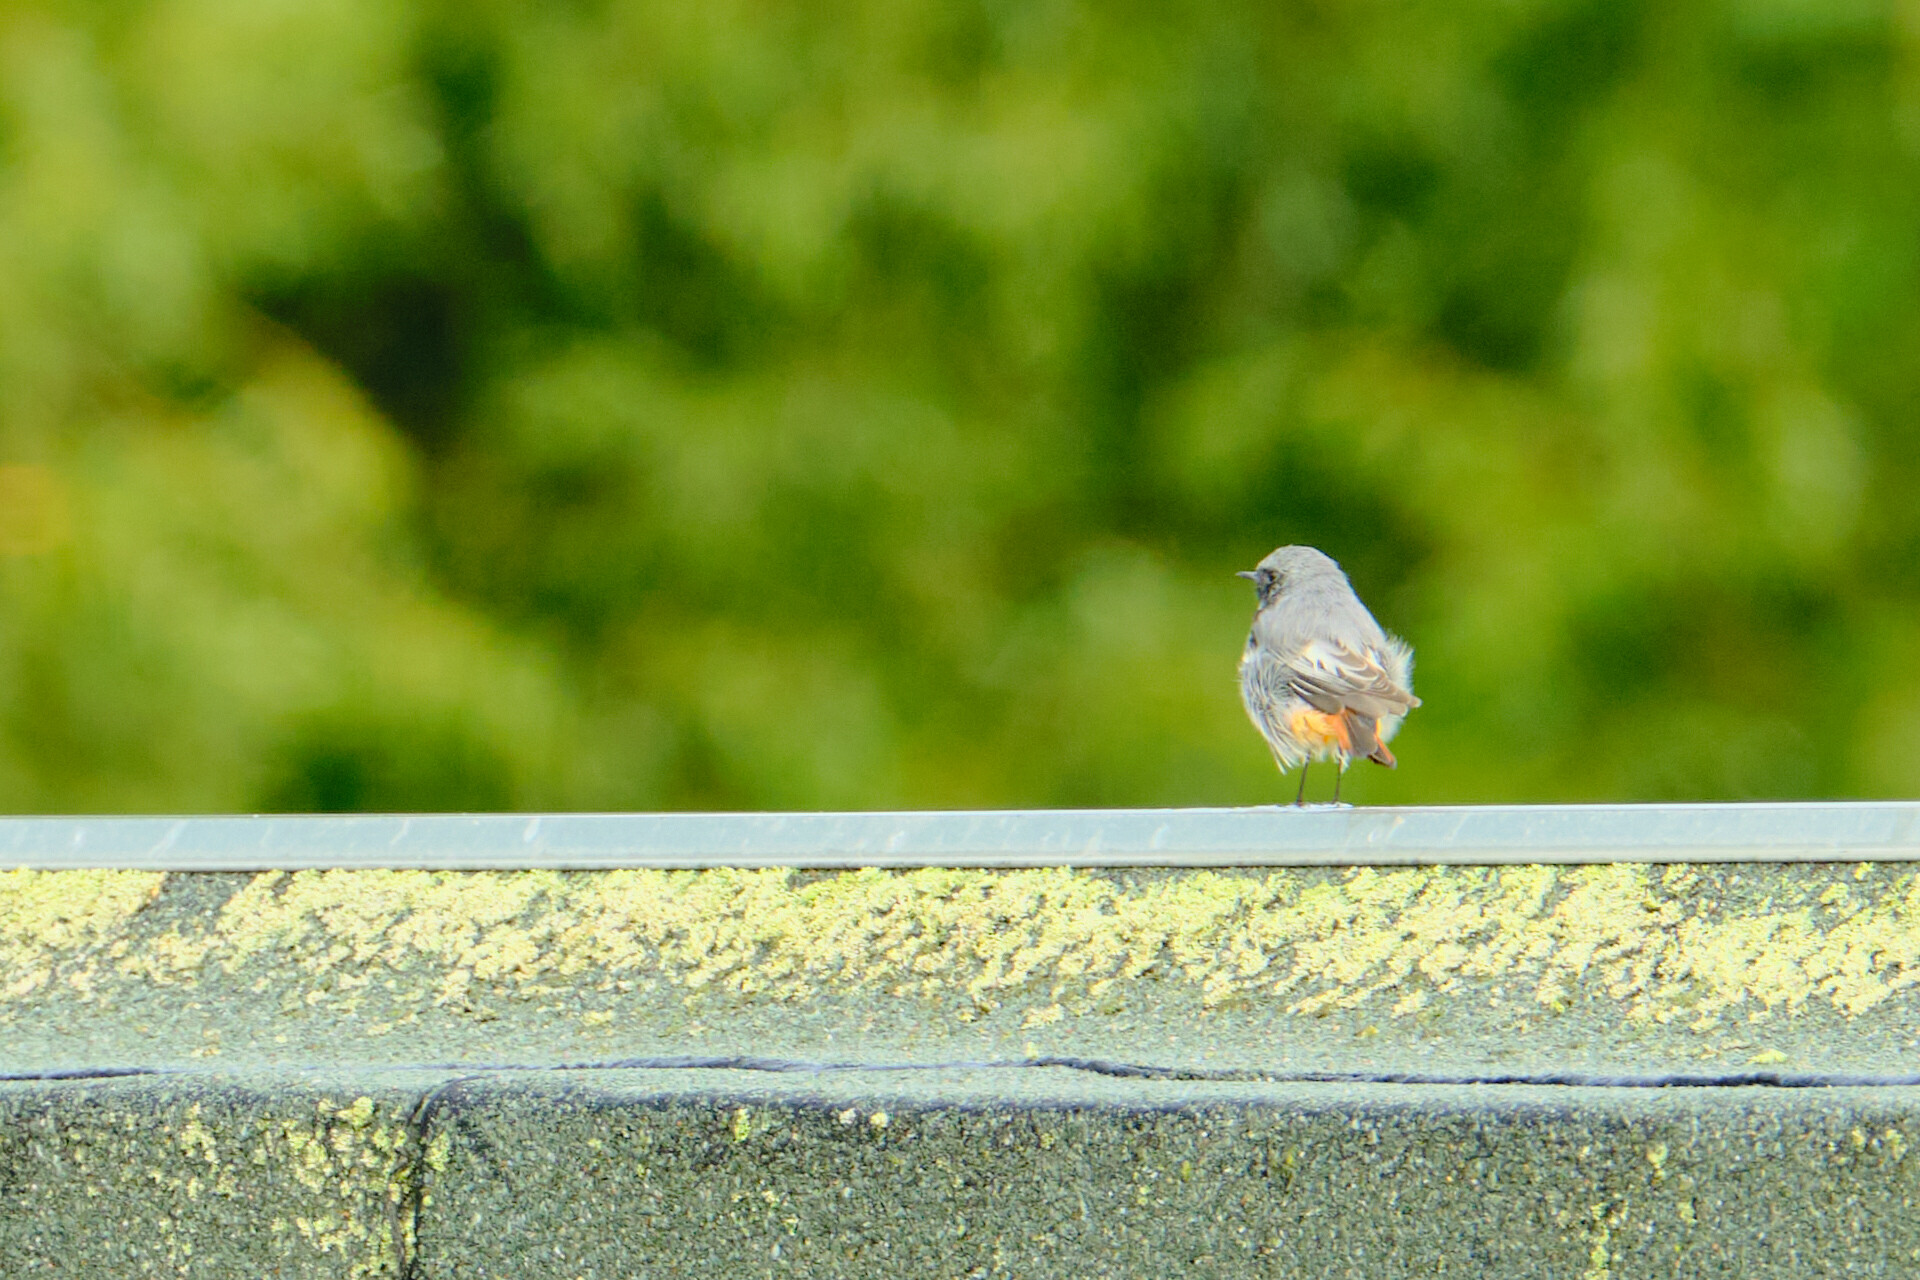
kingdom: Animalia
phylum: Chordata
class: Aves
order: Passeriformes
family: Muscicapidae
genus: Phoenicurus
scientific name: Phoenicurus ochruros
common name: Black redstart
